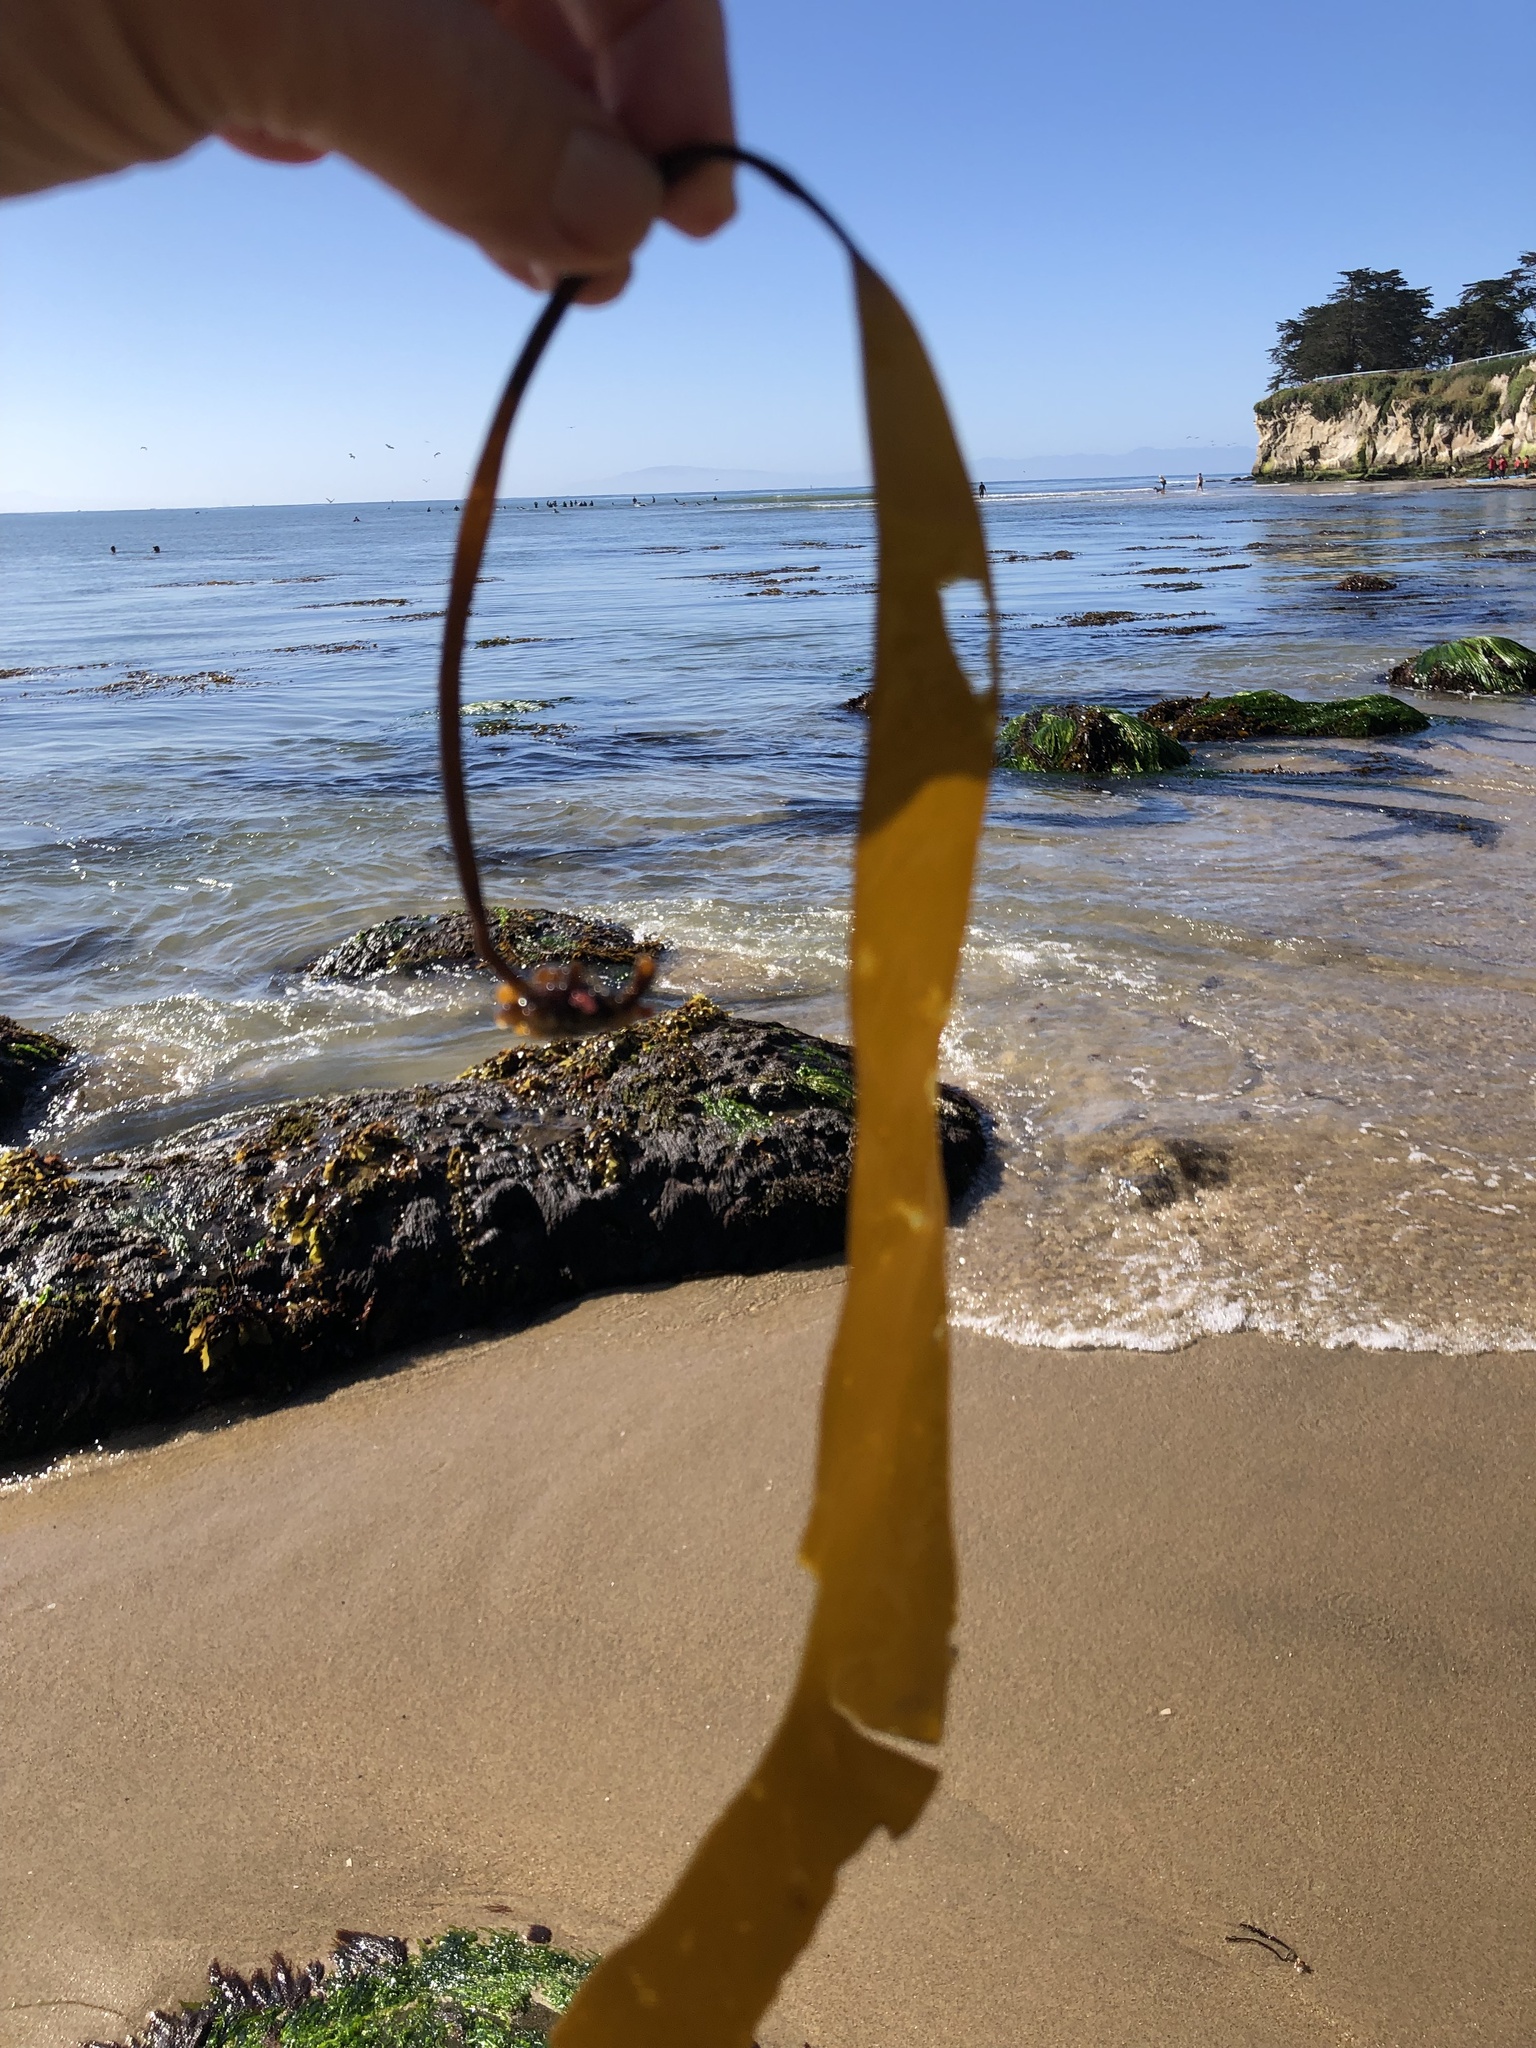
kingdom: Chromista
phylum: Ochrophyta
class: Phaeophyceae
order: Laminariales
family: Laminariaceae
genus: Laminaria
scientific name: Laminaria sinclairii
